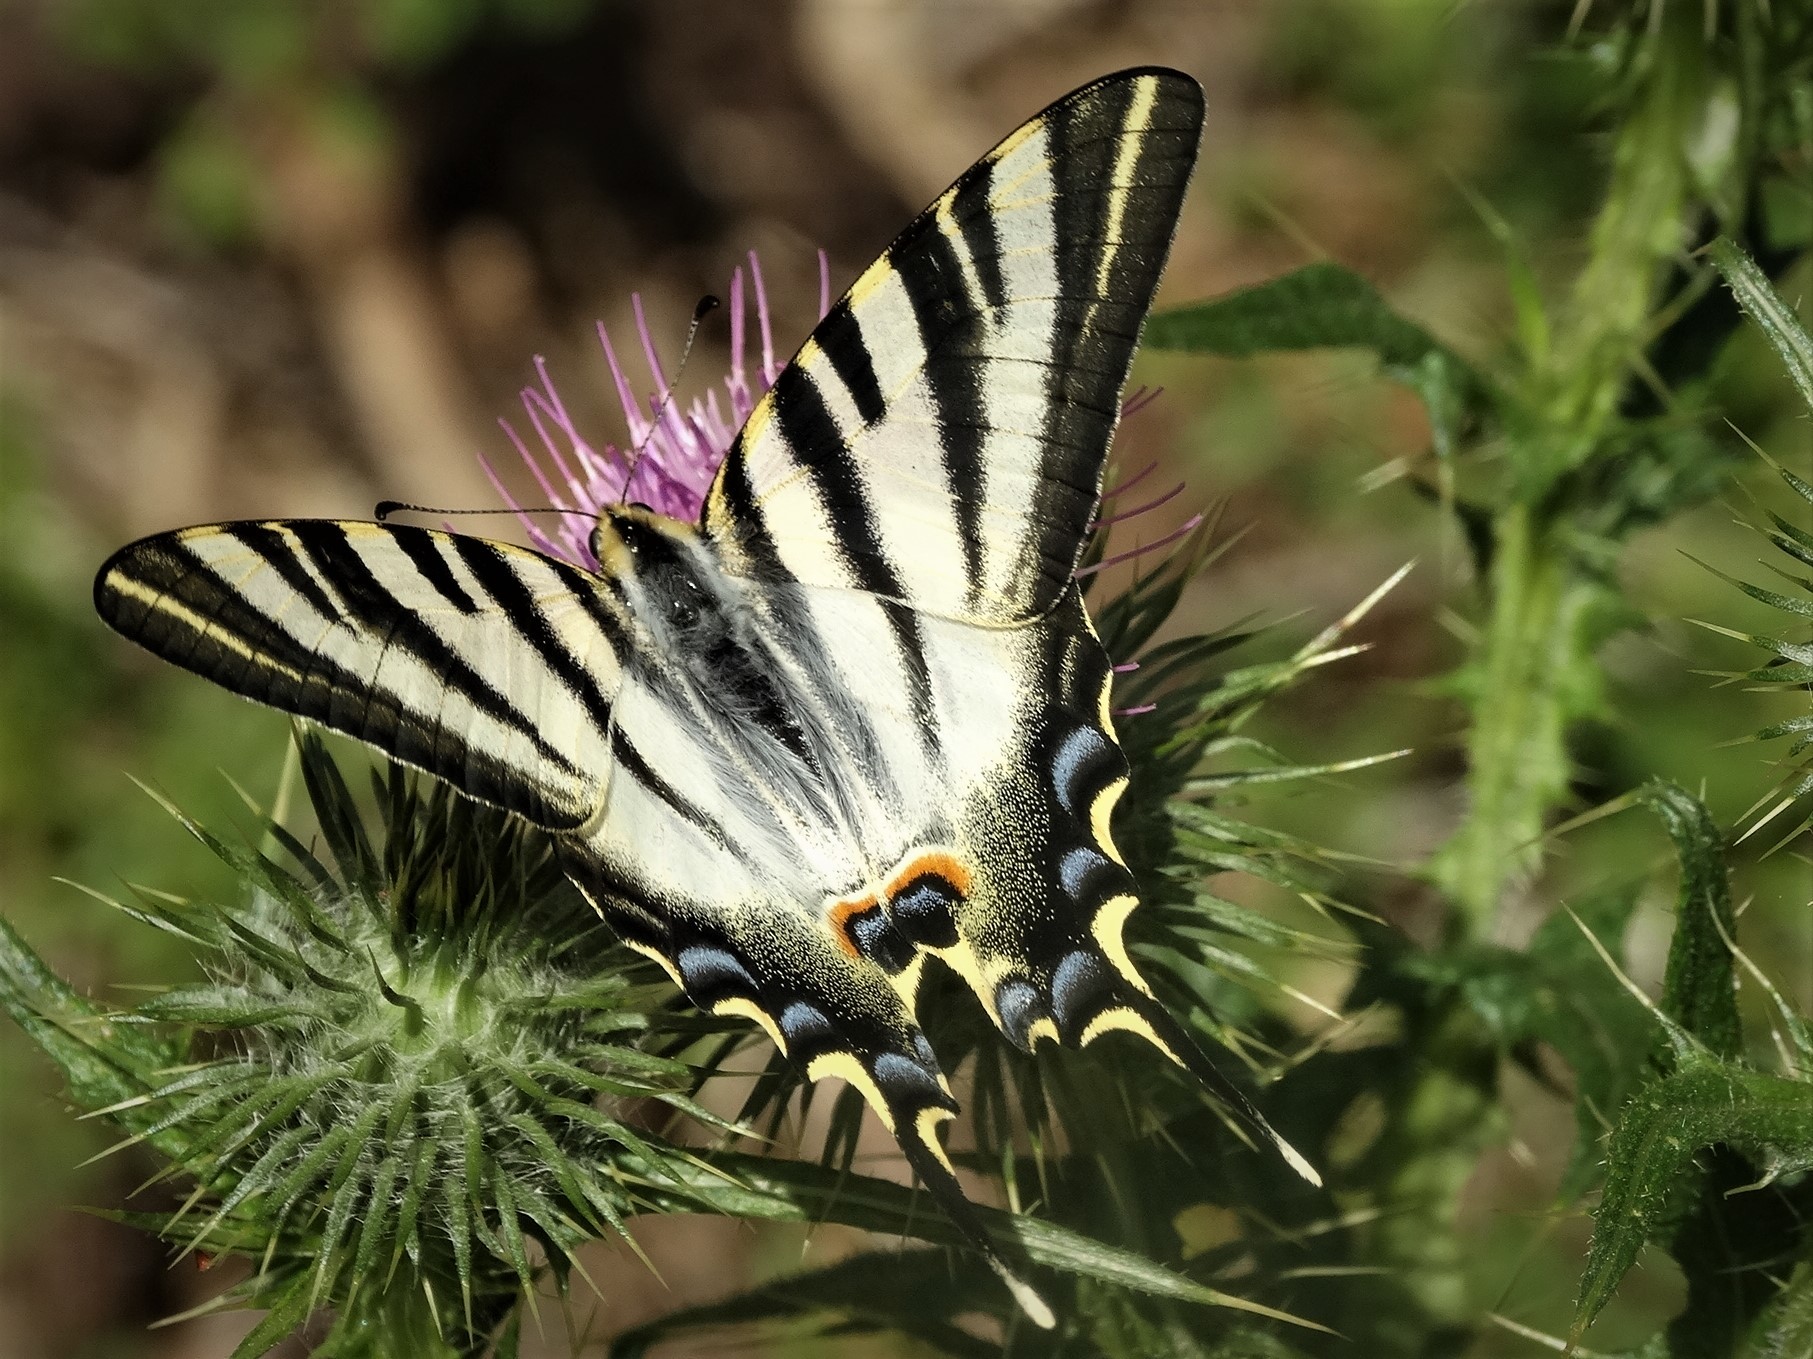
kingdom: Animalia
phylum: Arthropoda
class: Insecta
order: Lepidoptera
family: Papilionidae
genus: Iphiclides
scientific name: Iphiclides feisthamelii
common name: Iberian scarce swallowtail
